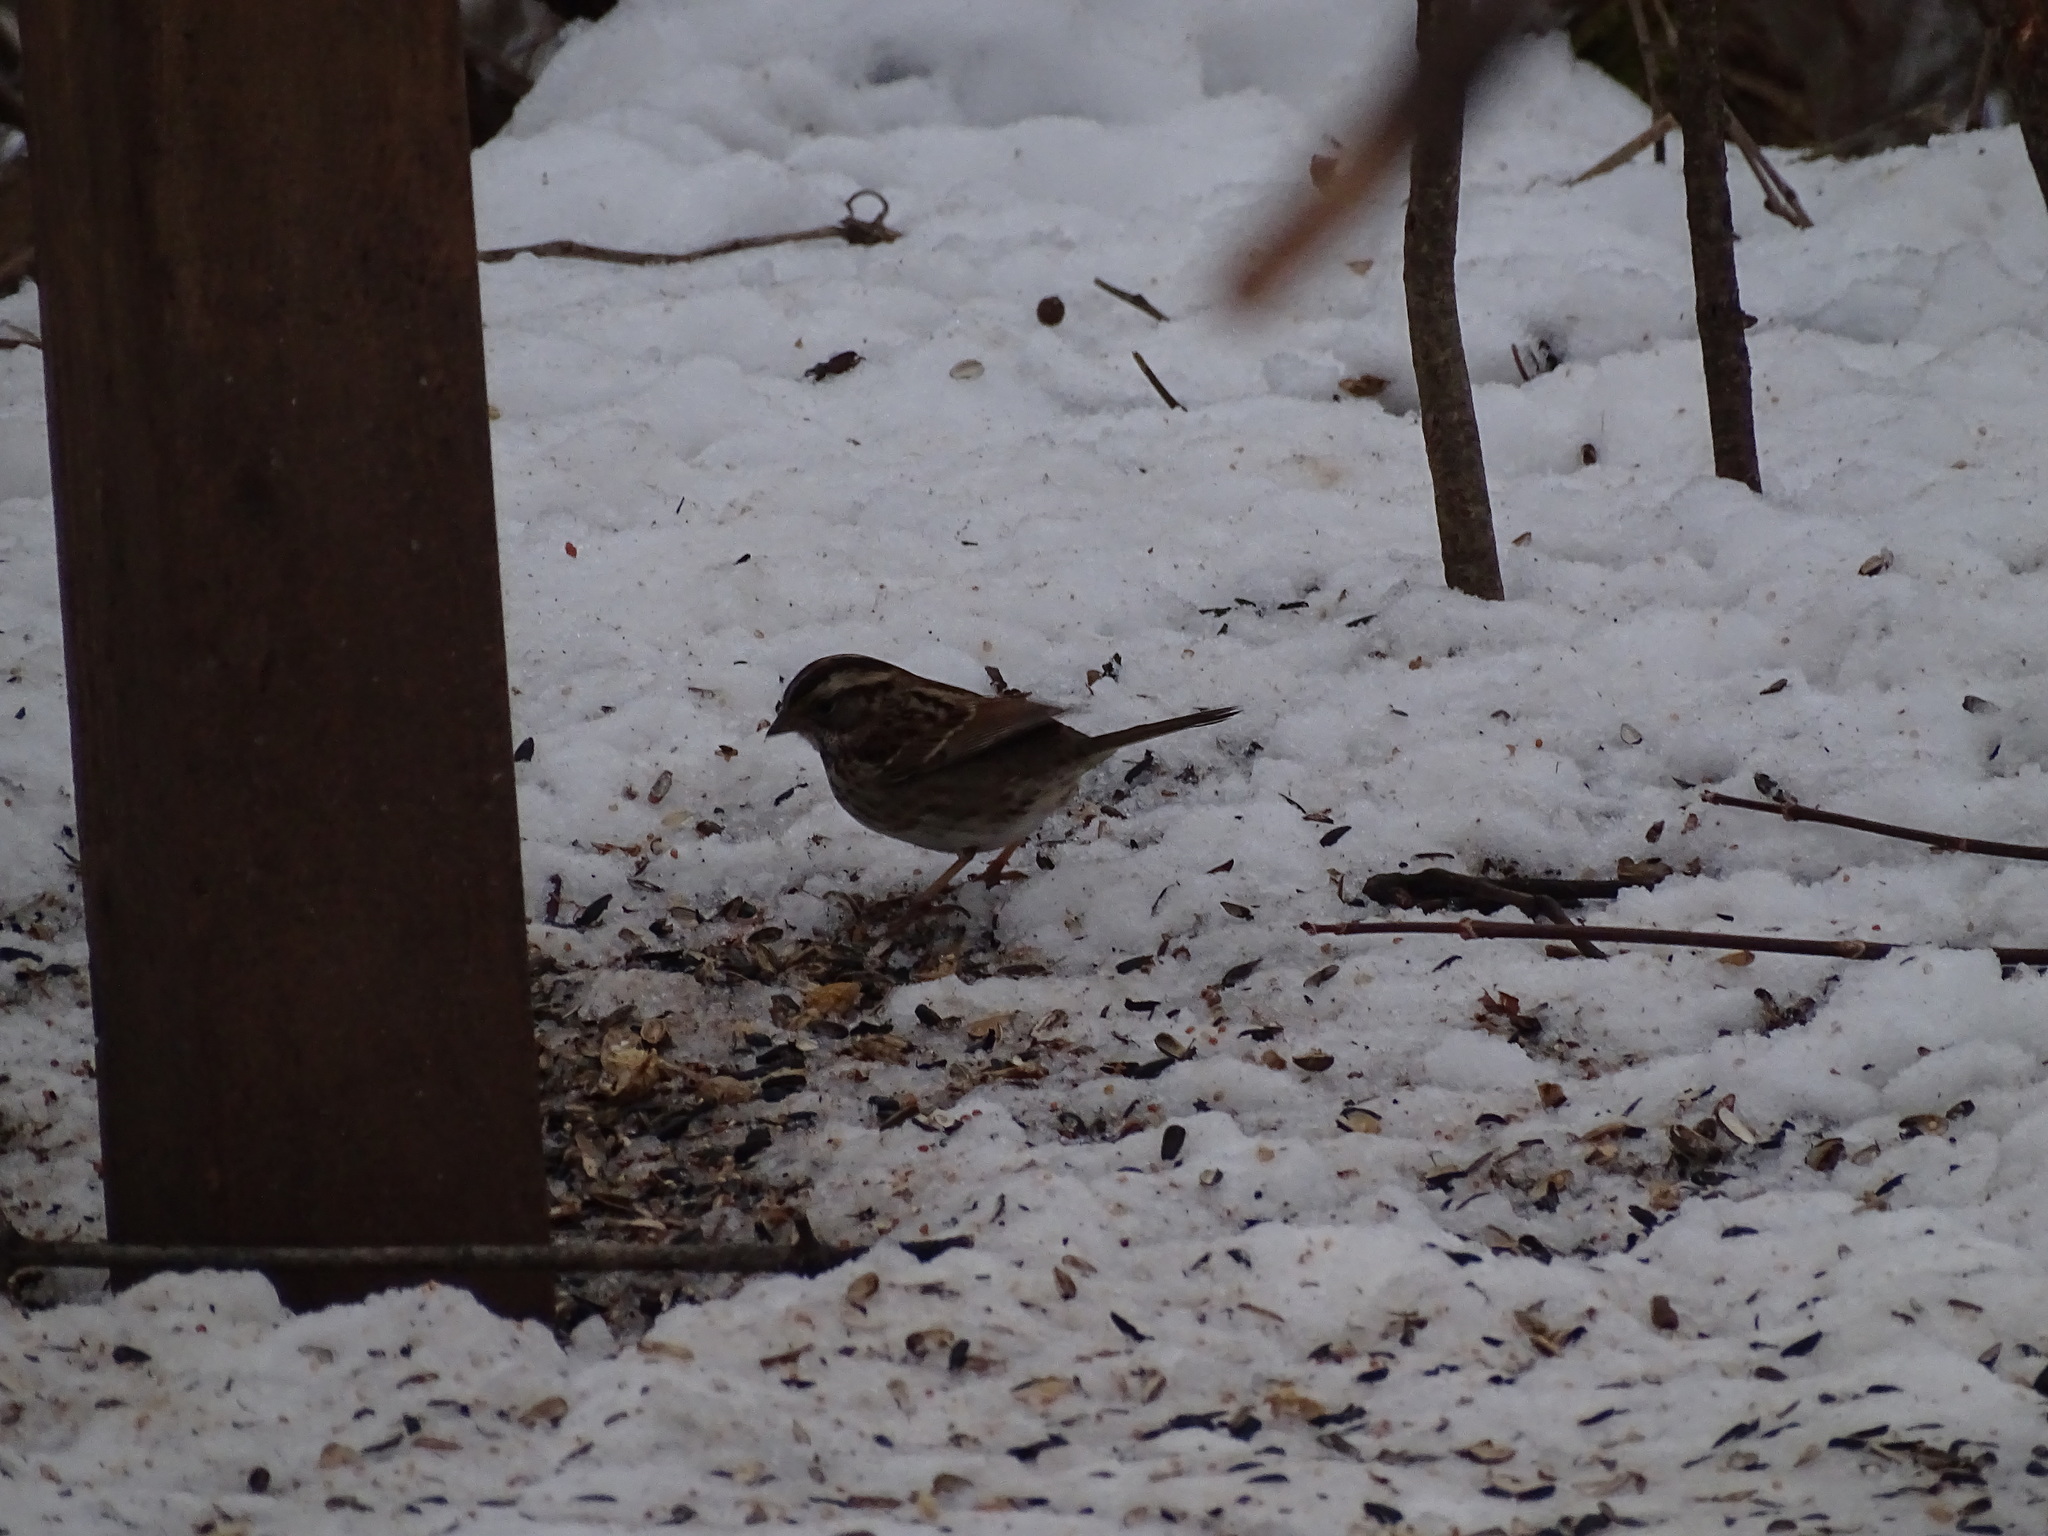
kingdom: Animalia
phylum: Chordata
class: Aves
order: Passeriformes
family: Passerellidae
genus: Zonotrichia
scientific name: Zonotrichia albicollis
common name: White-throated sparrow
